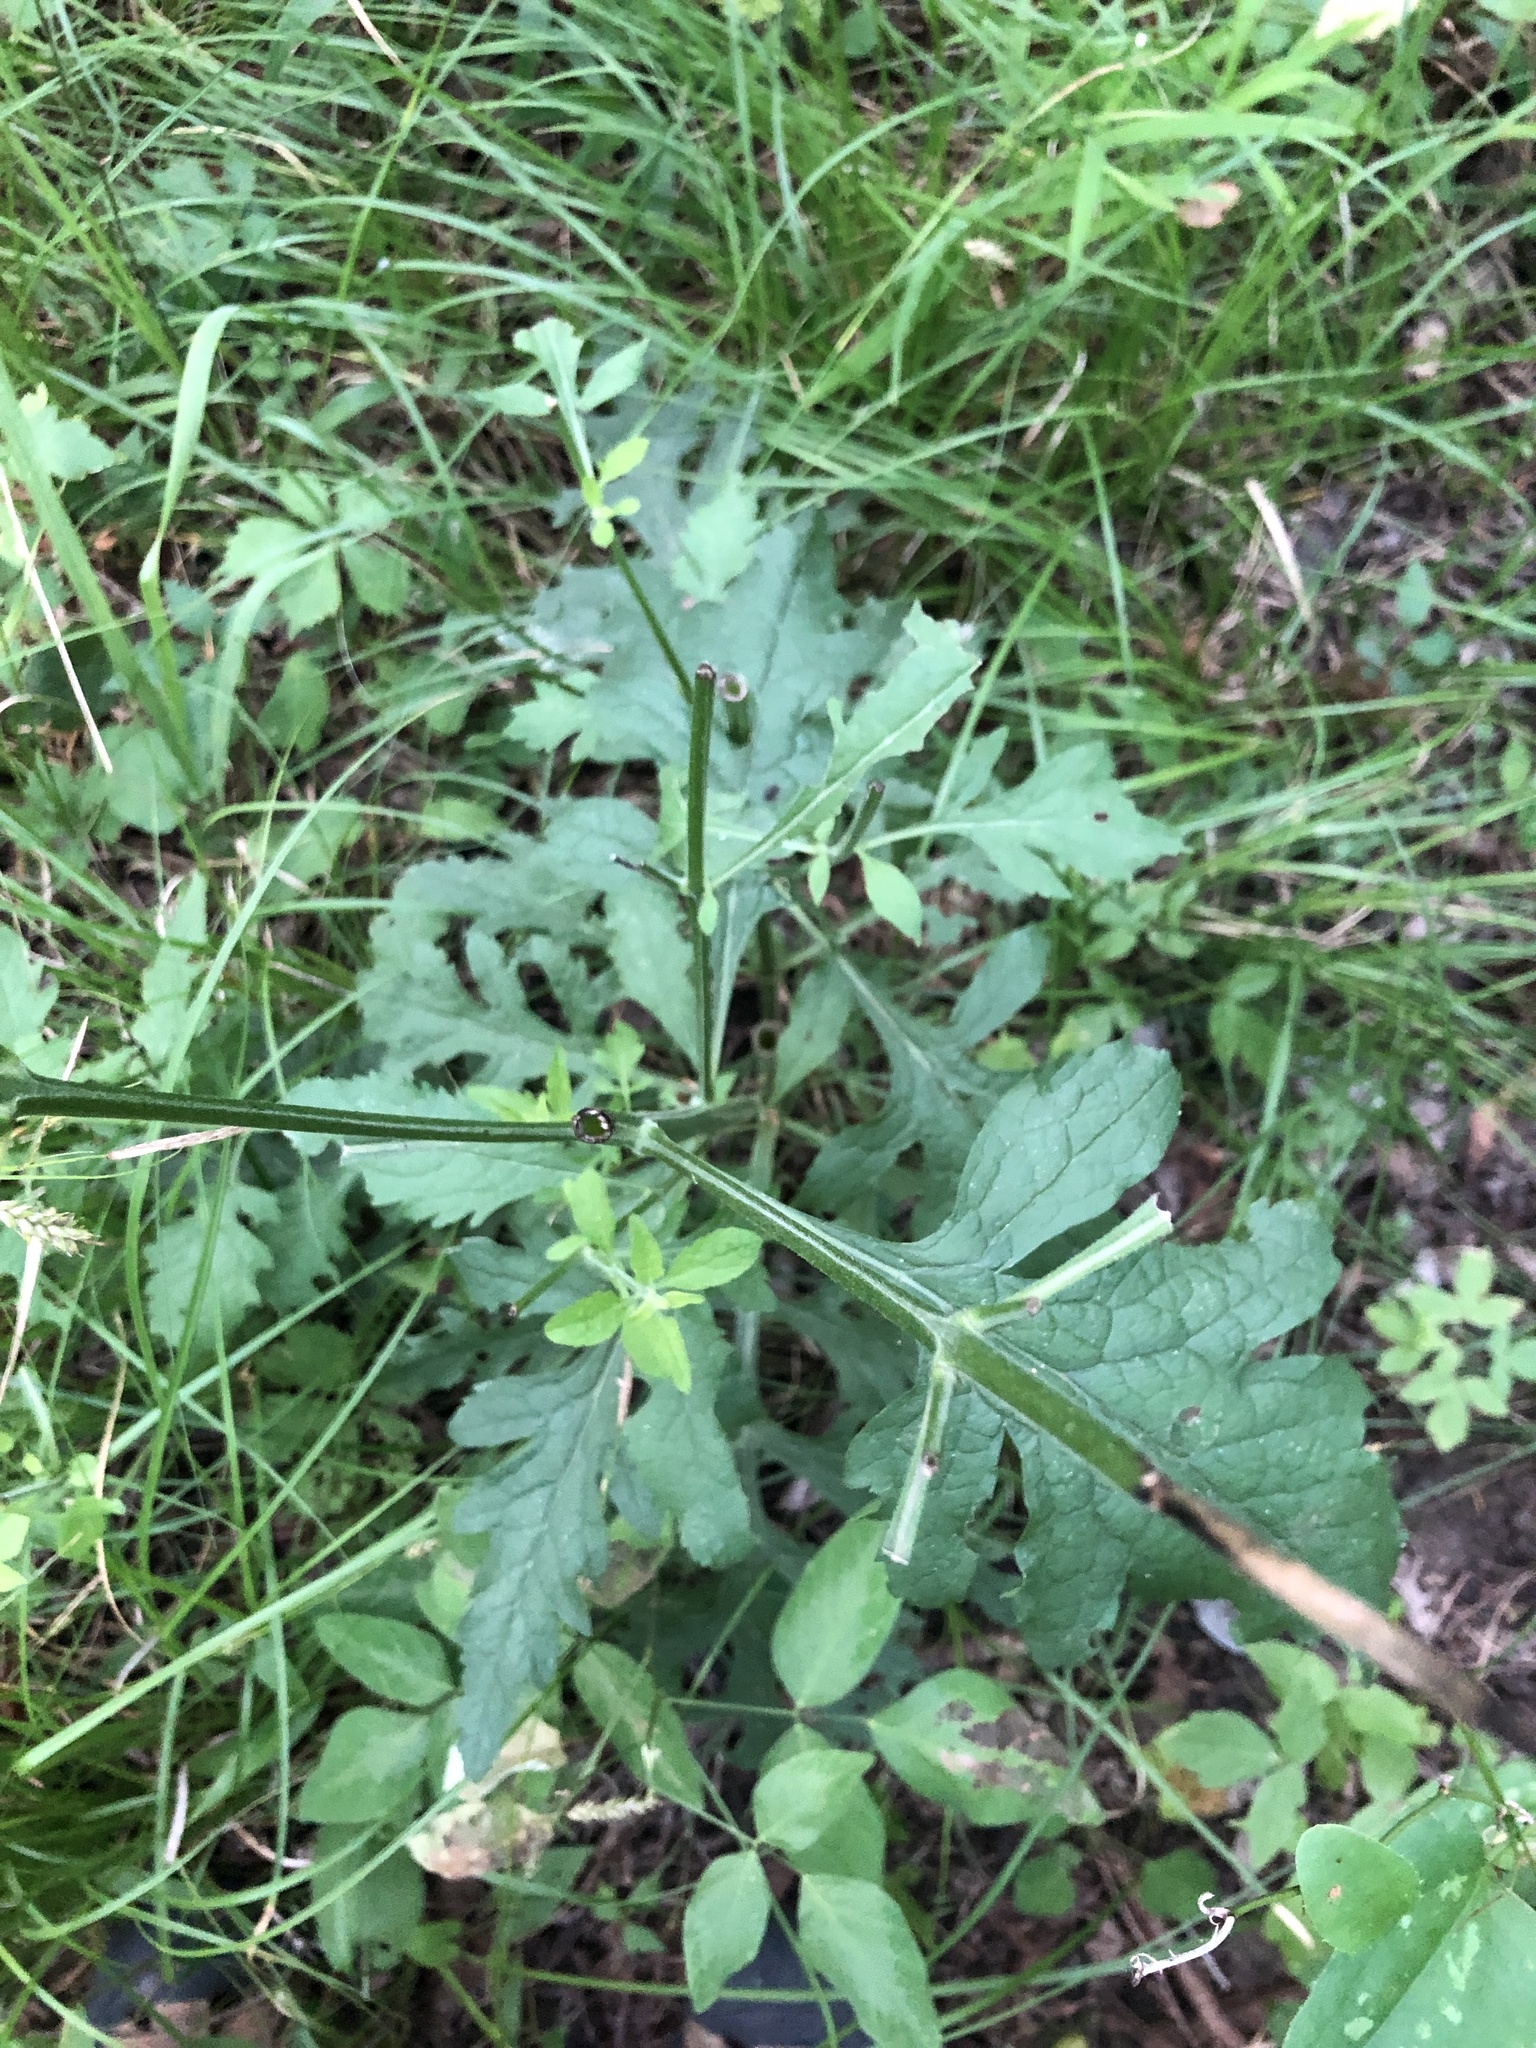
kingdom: Plantae
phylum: Tracheophyta
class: Magnoliopsida
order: Lamiales
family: Orobanchaceae
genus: Dasistoma
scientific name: Dasistoma macrophyllum
